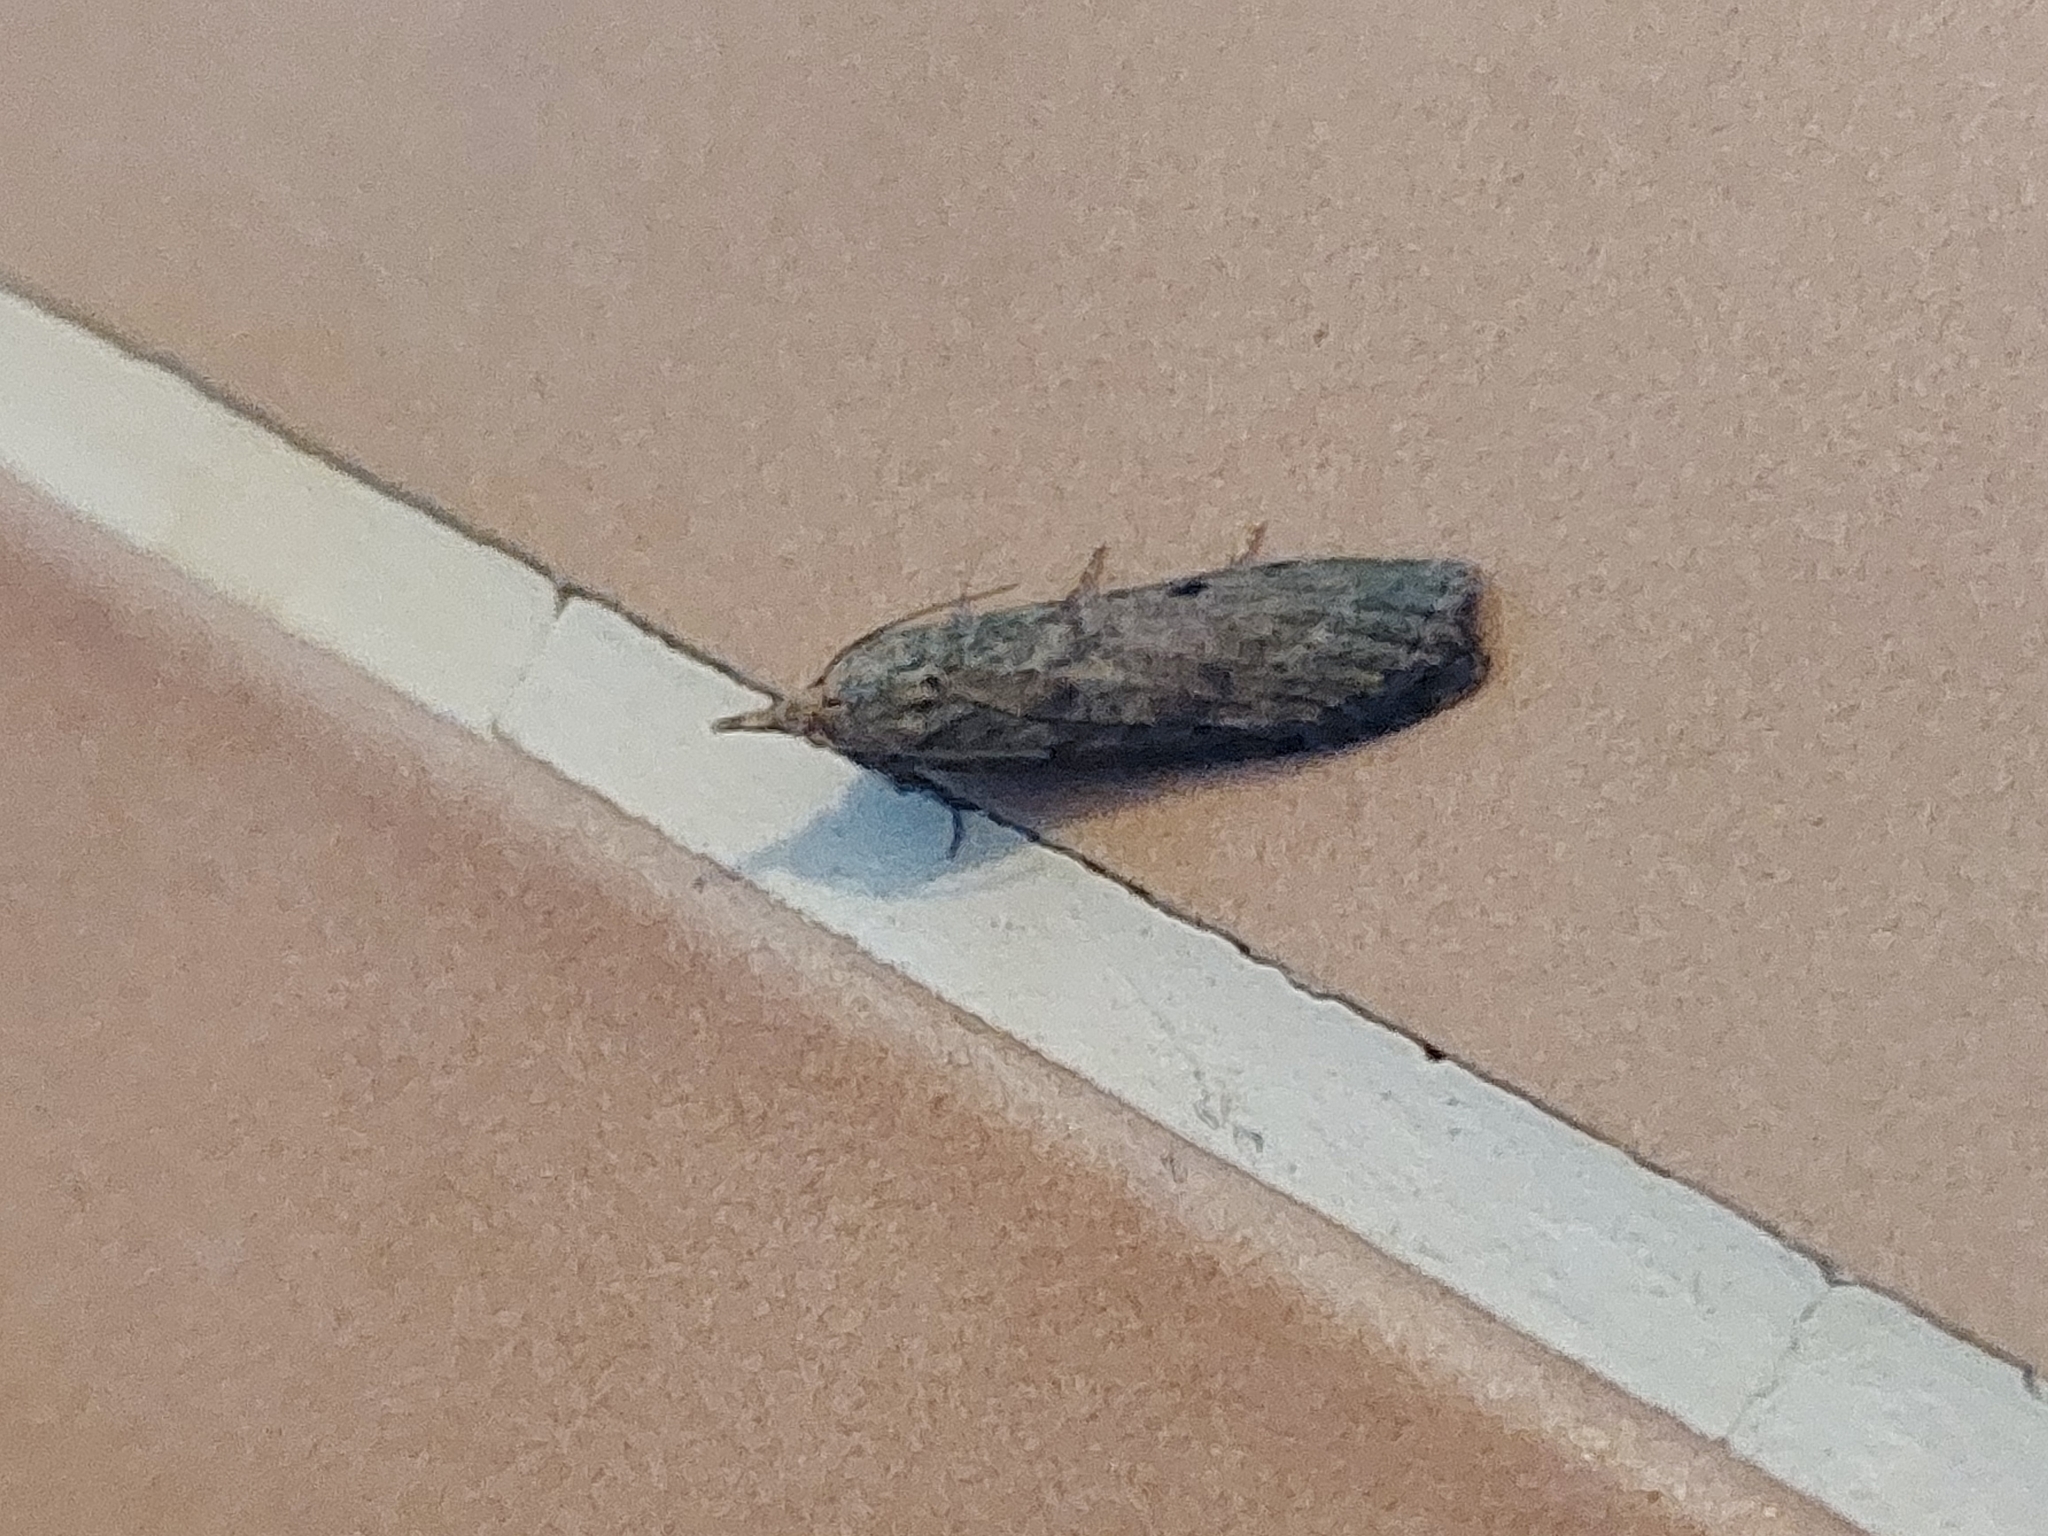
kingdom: Animalia
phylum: Arthropoda
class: Insecta
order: Lepidoptera
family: Pyralidae
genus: Aphomia
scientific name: Aphomia sociella
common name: Bee moth
